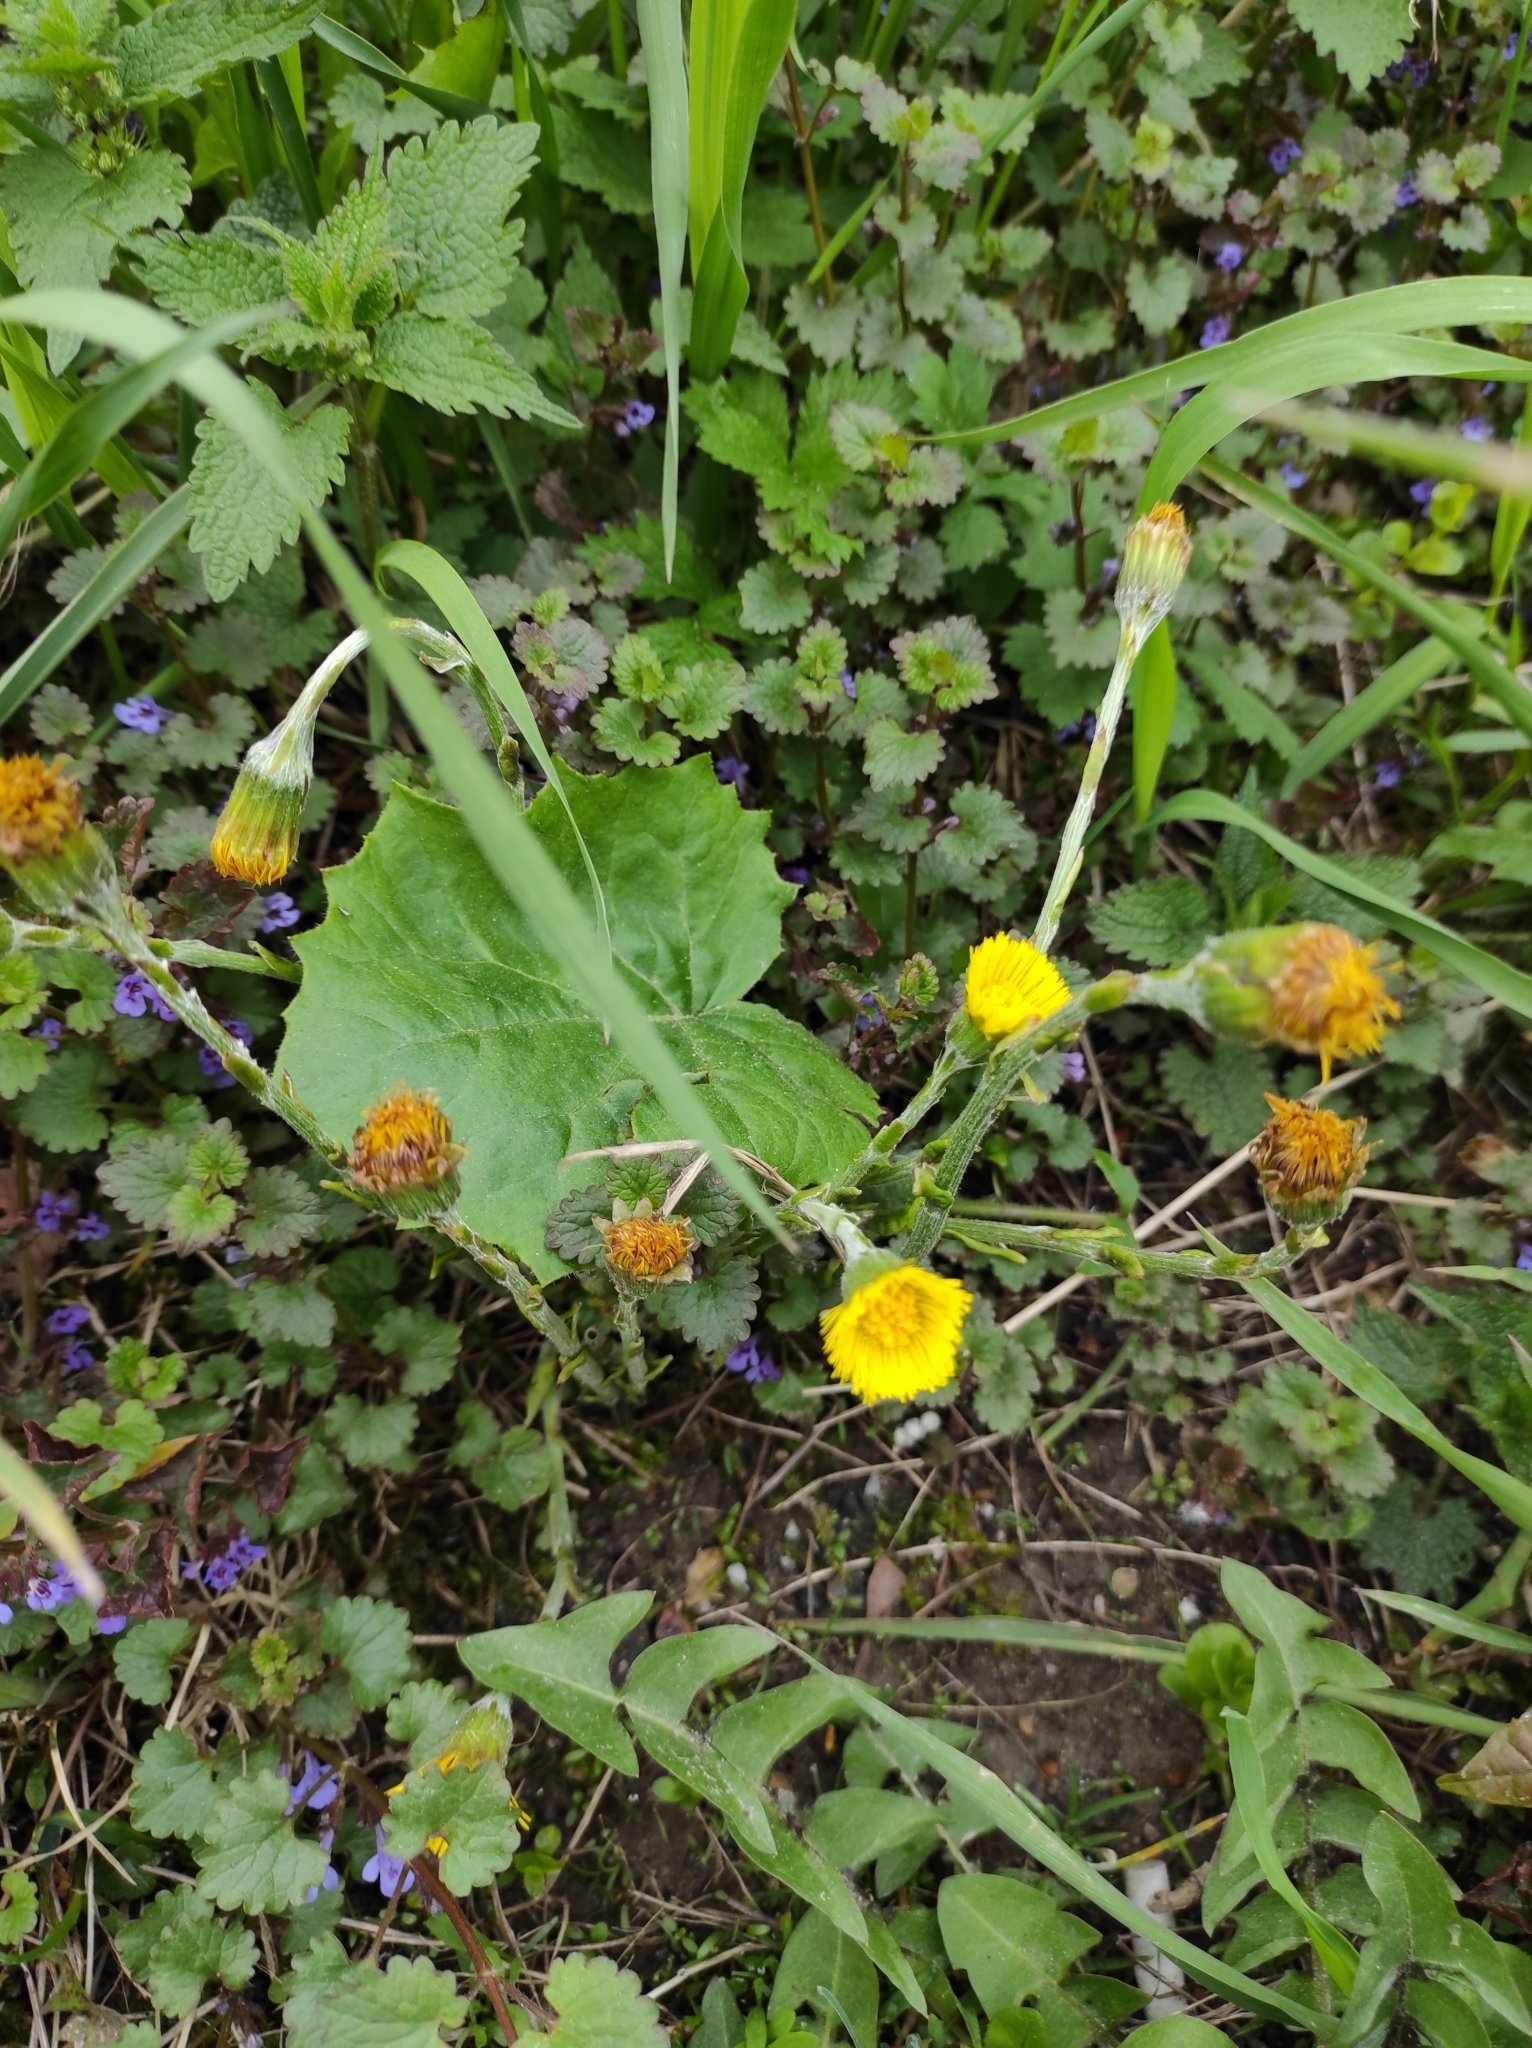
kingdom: Plantae
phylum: Tracheophyta
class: Magnoliopsida
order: Asterales
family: Asteraceae
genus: Tussilago
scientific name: Tussilago farfara
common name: Coltsfoot
